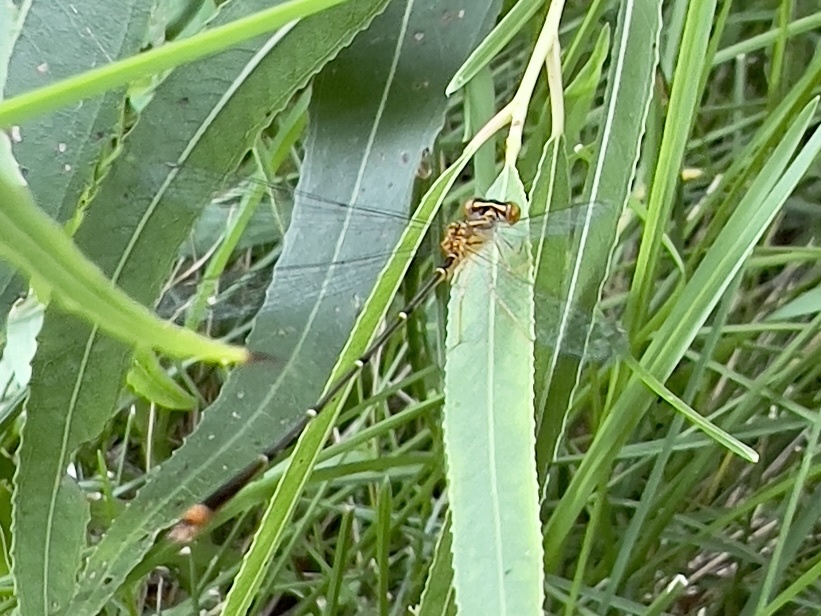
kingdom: Animalia
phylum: Arthropoda
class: Insecta
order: Odonata
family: Coenagrionidae
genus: Enallagma
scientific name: Enallagma signatum
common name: Orange bluet
